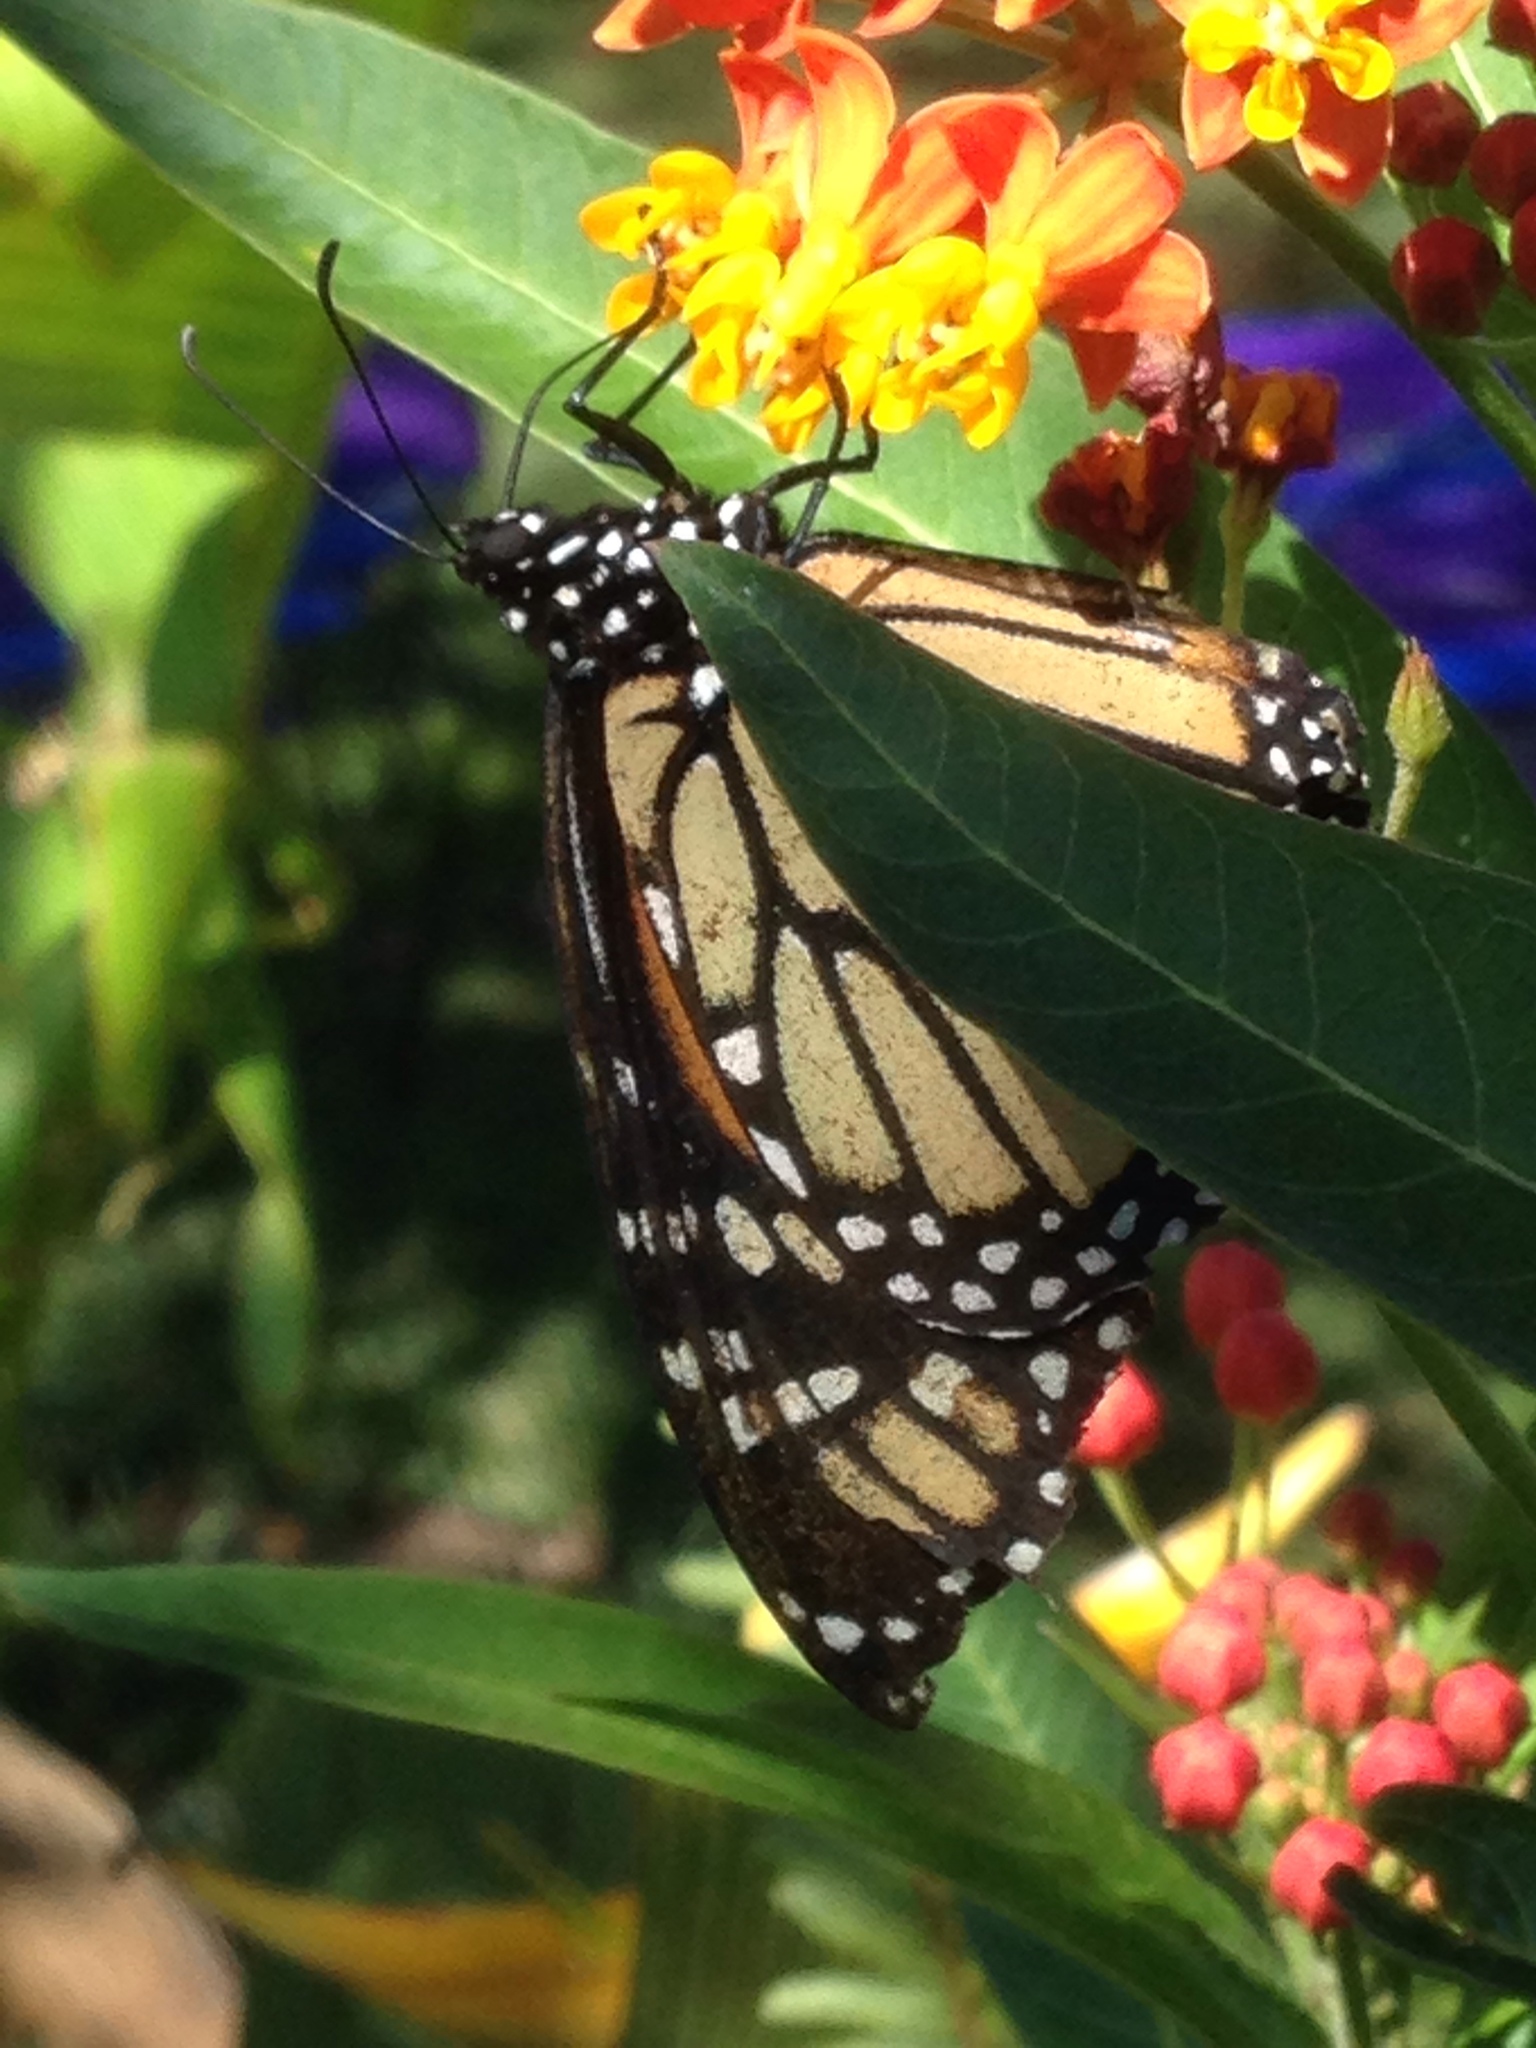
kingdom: Animalia
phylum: Arthropoda
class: Insecta
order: Lepidoptera
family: Nymphalidae
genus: Danaus
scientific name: Danaus plexippus
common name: Monarch
